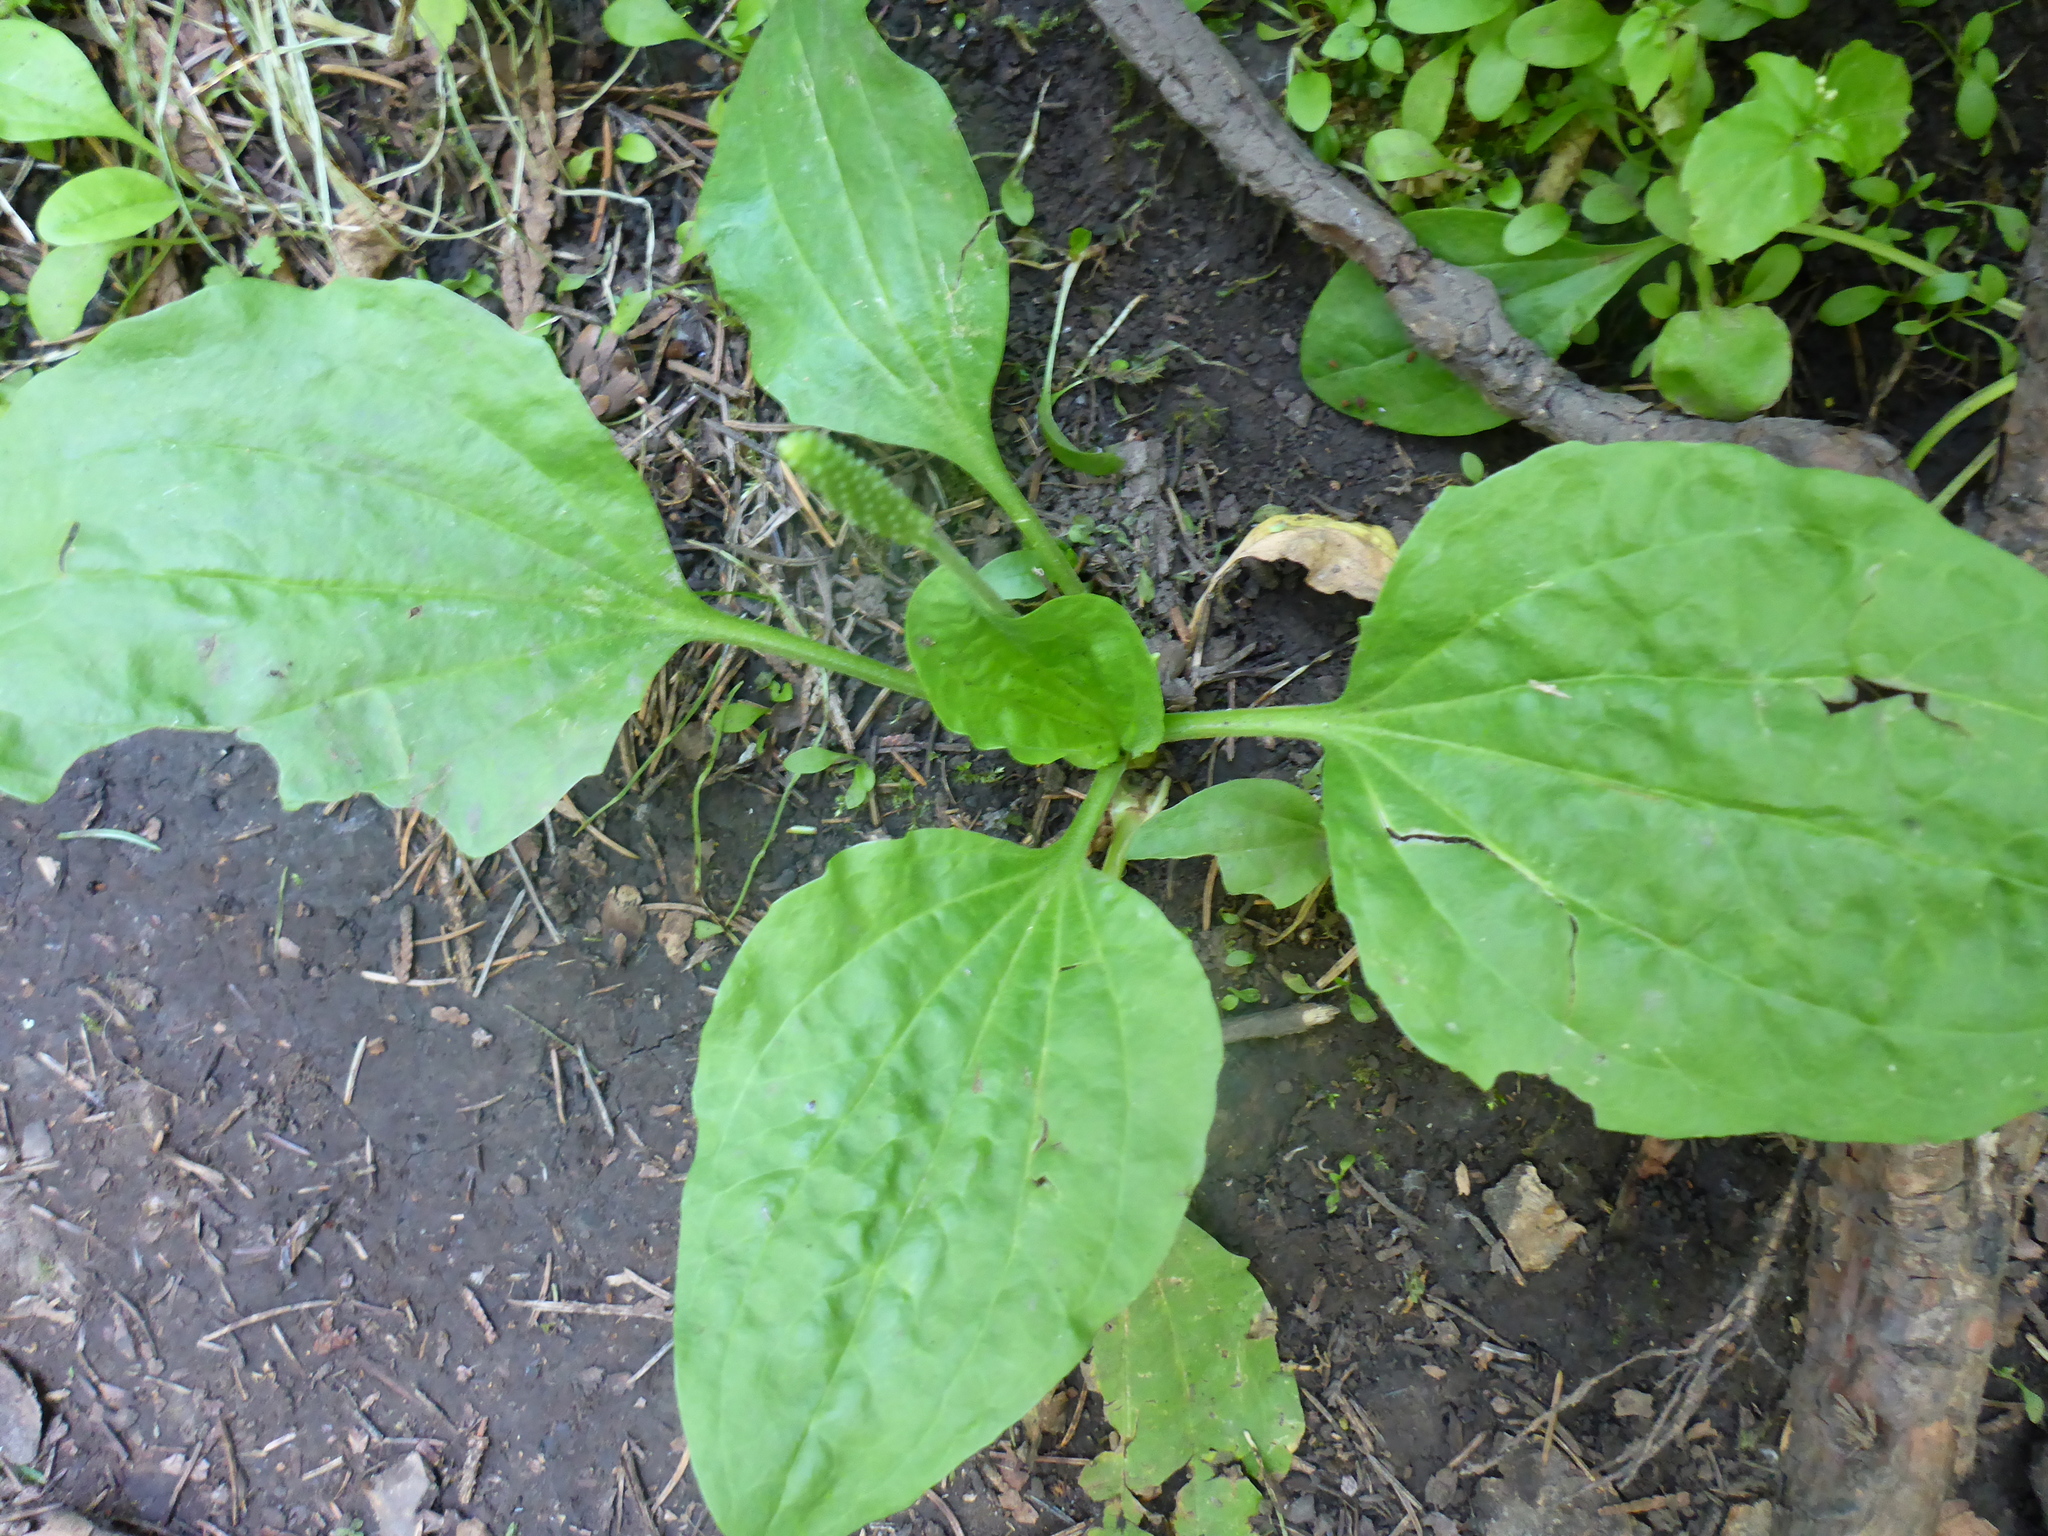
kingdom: Plantae
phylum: Tracheophyta
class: Magnoliopsida
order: Lamiales
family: Plantaginaceae
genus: Plantago
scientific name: Plantago major
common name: Common plantain
